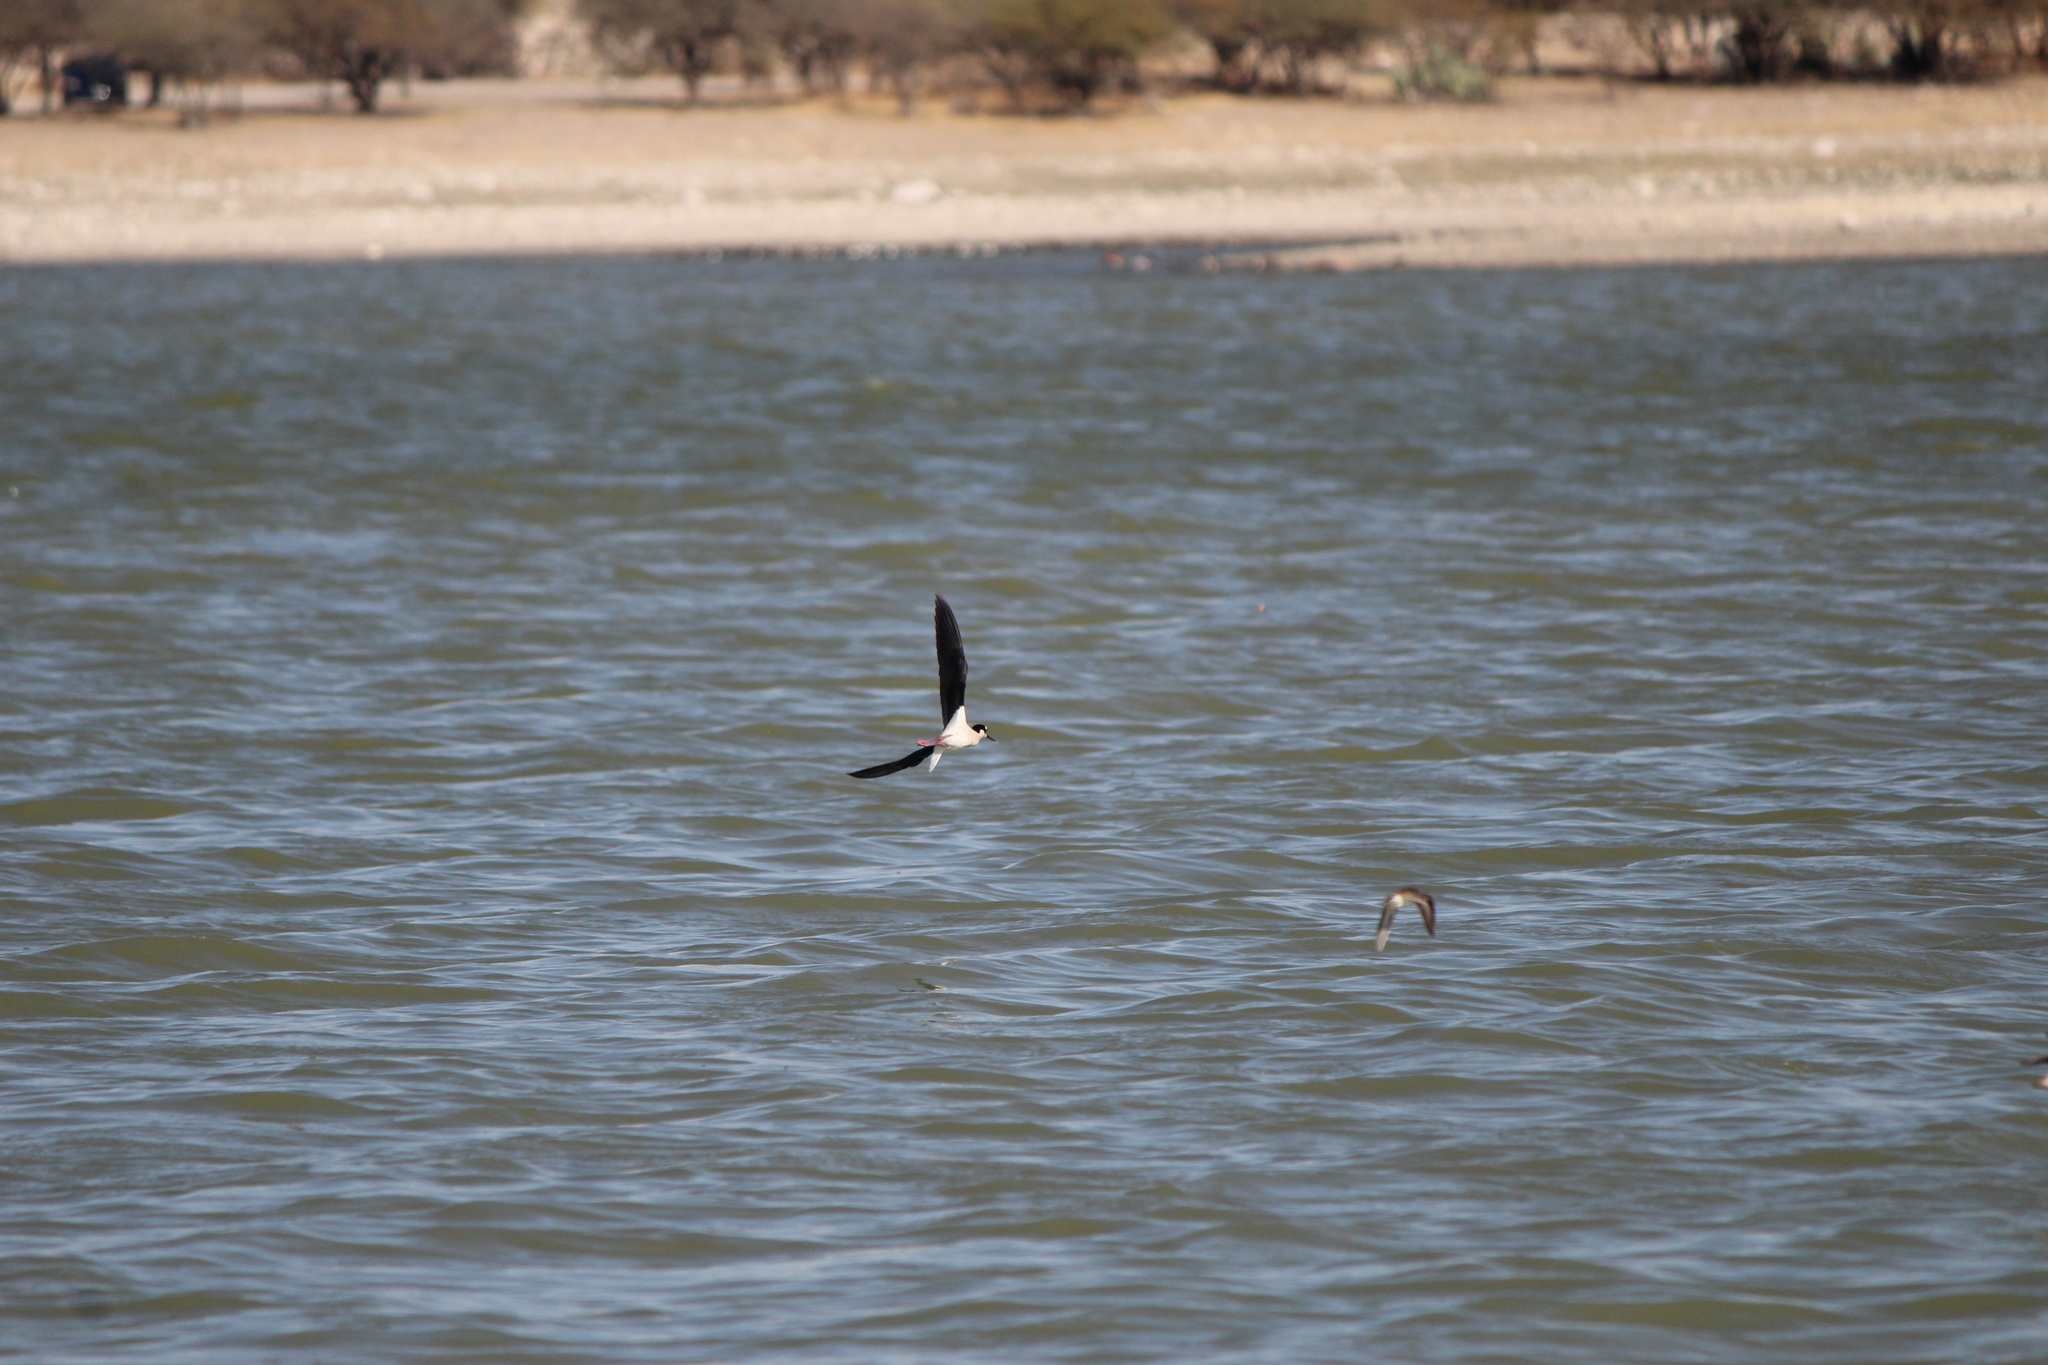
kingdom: Animalia
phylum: Chordata
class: Aves
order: Charadriiformes
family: Recurvirostridae
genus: Himantopus
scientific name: Himantopus mexicanus
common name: Black-necked stilt
